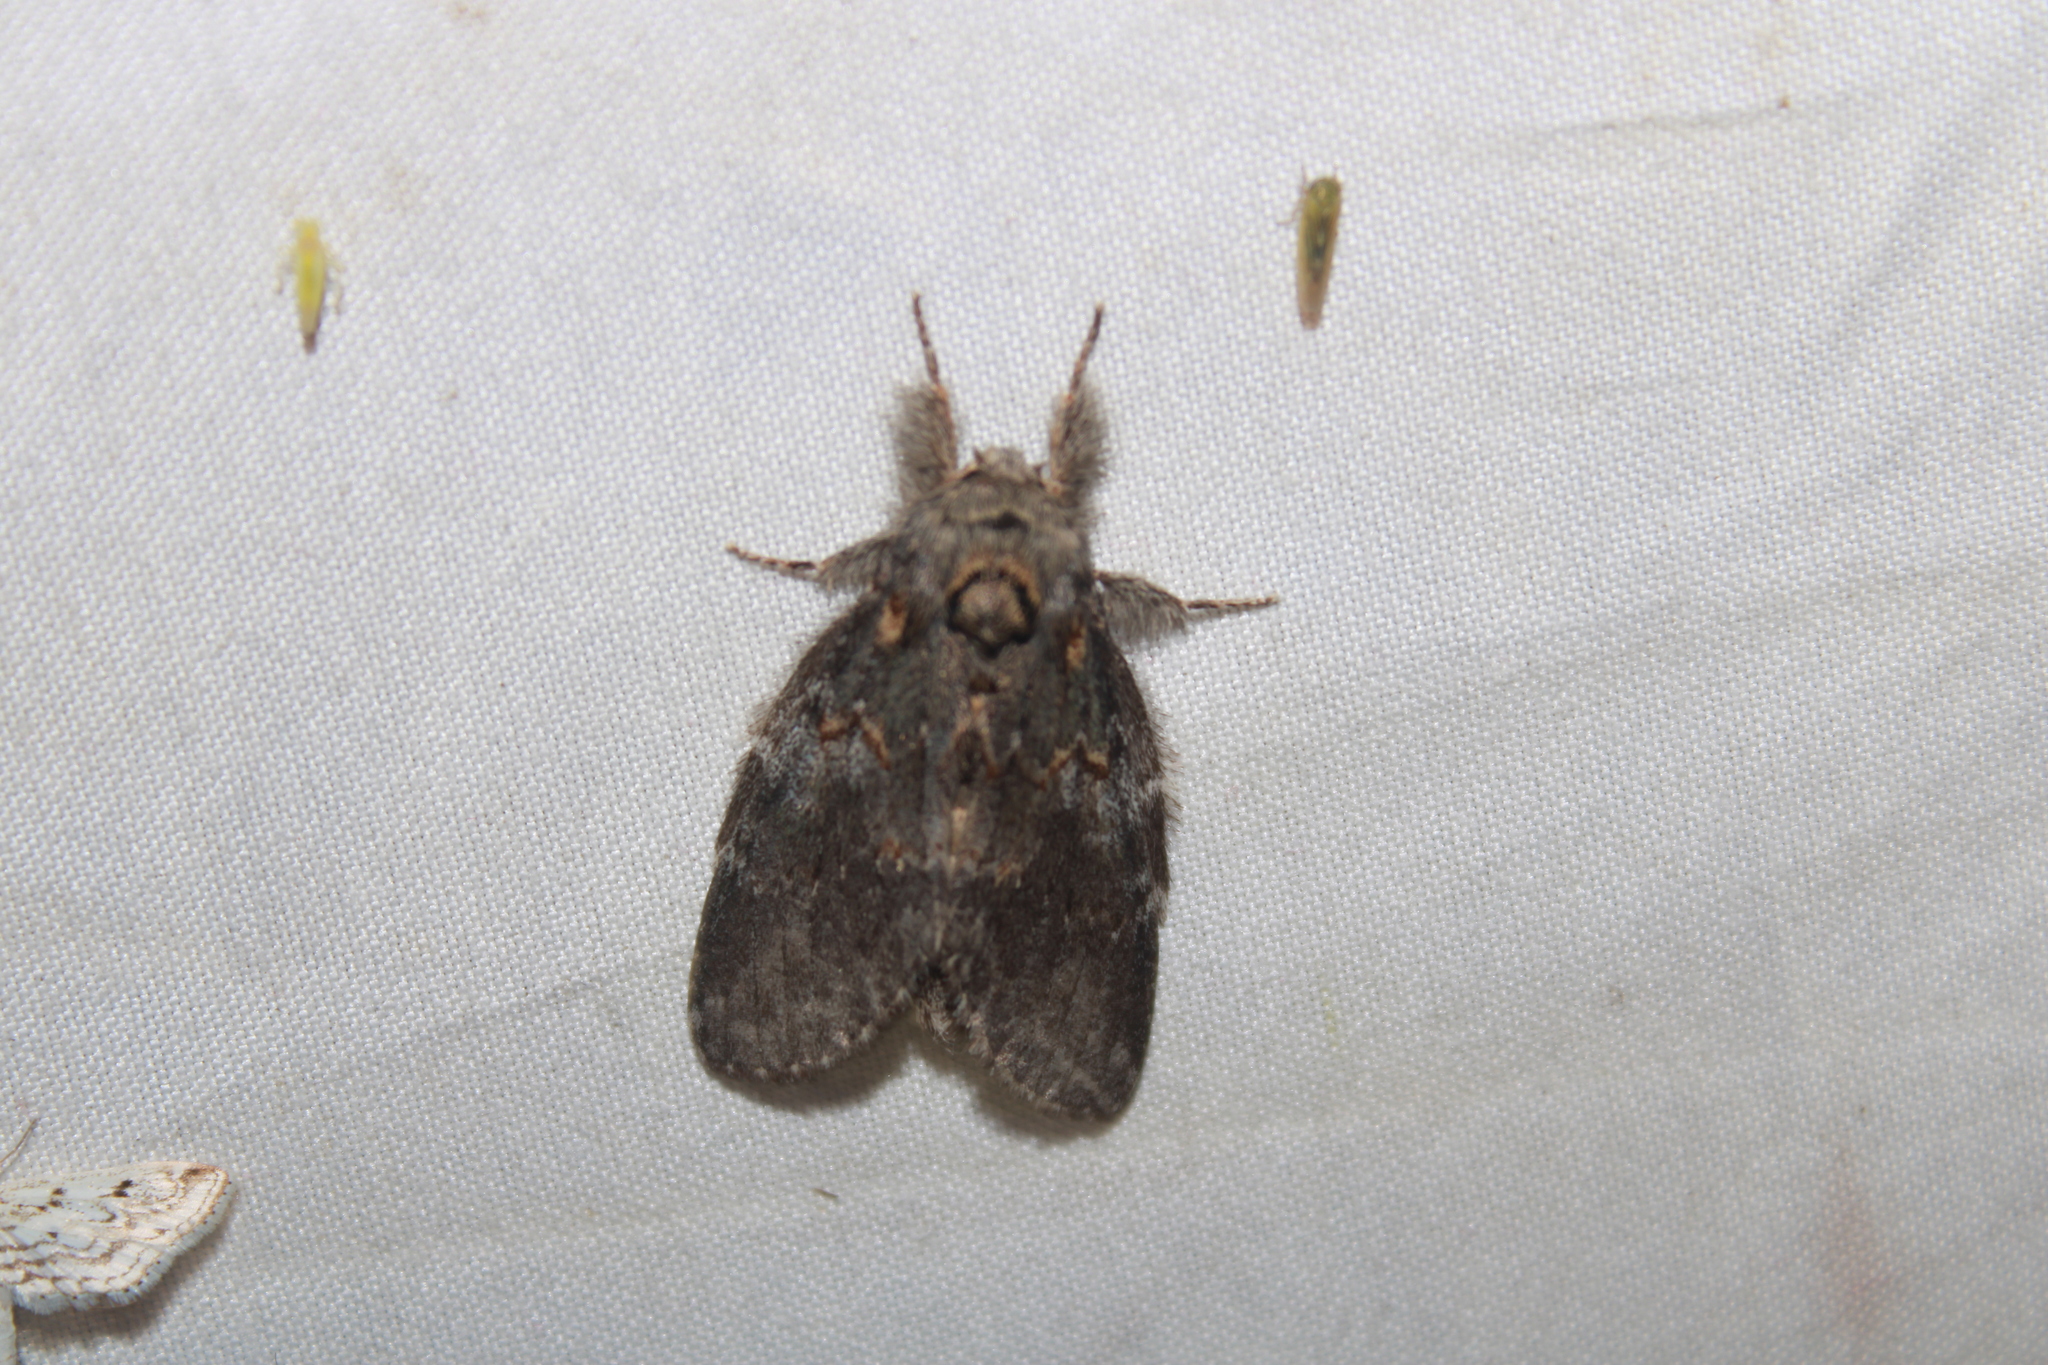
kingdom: Animalia
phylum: Arthropoda
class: Insecta
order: Lepidoptera
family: Notodontidae
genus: Peridea
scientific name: Peridea angulosa
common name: Angulose prominent
